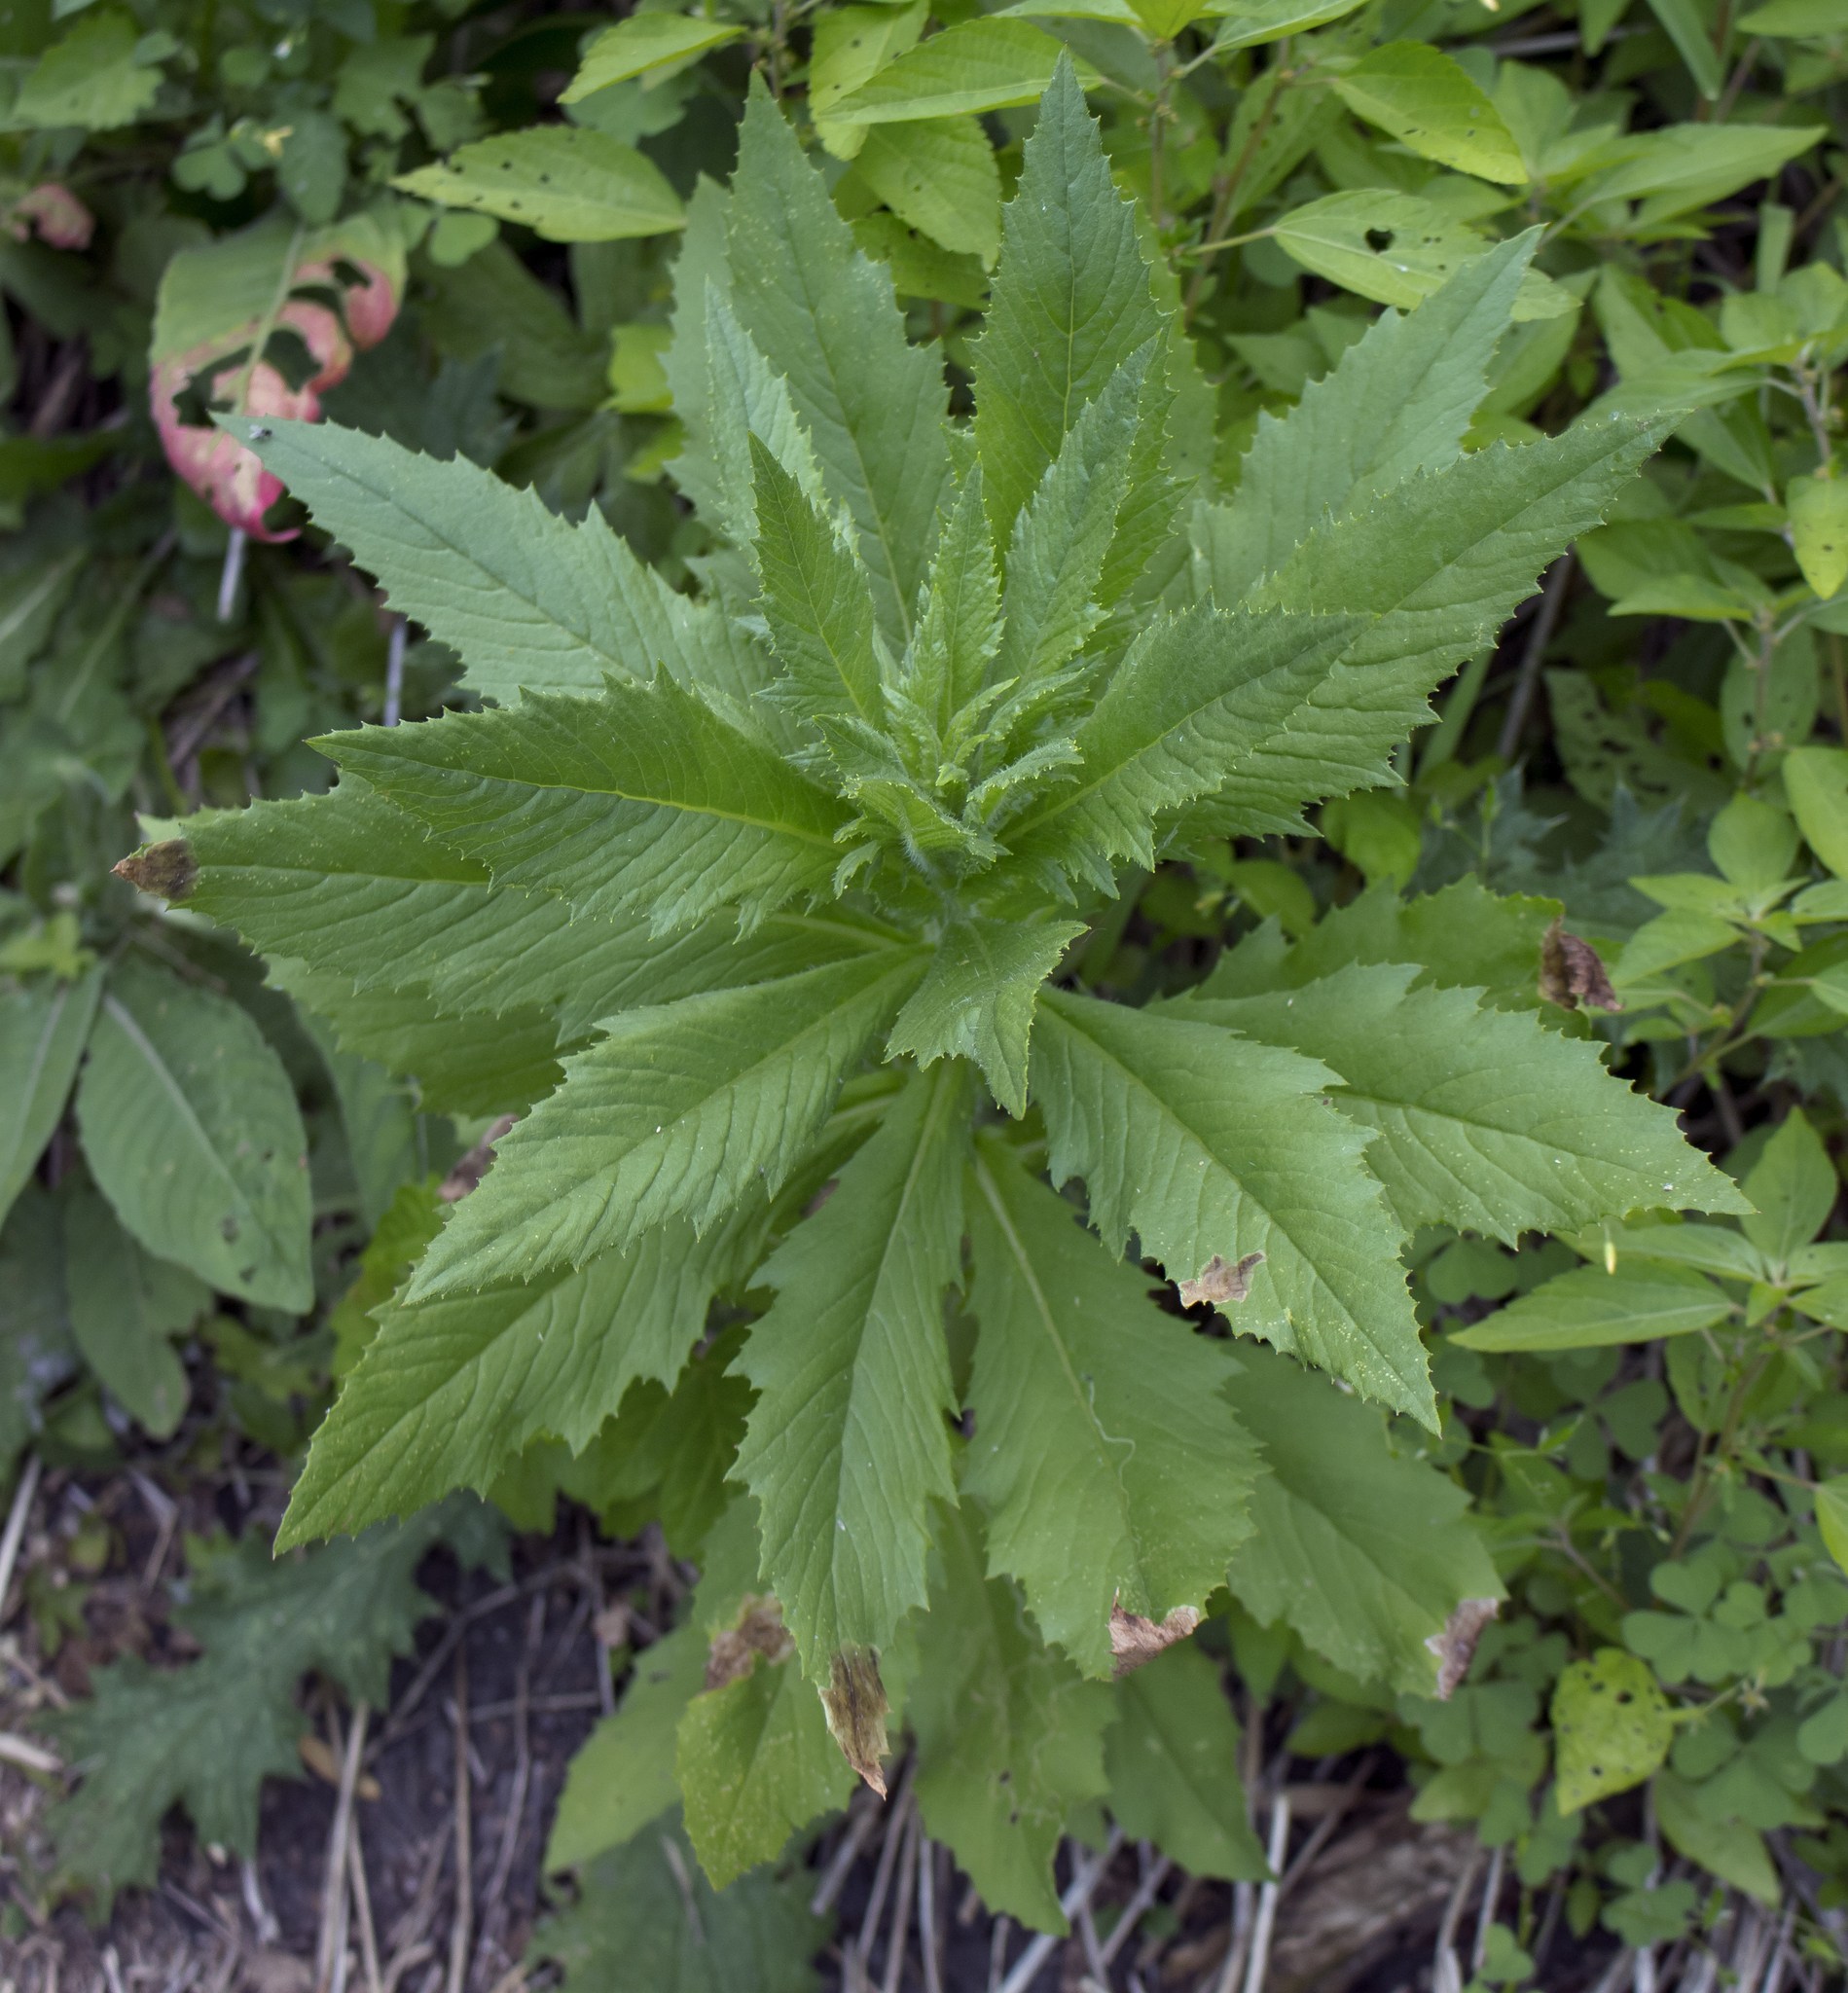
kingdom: Plantae
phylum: Tracheophyta
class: Magnoliopsida
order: Asterales
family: Asteraceae
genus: Erechtites
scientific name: Erechtites hieraciifolius
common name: American burnweed
